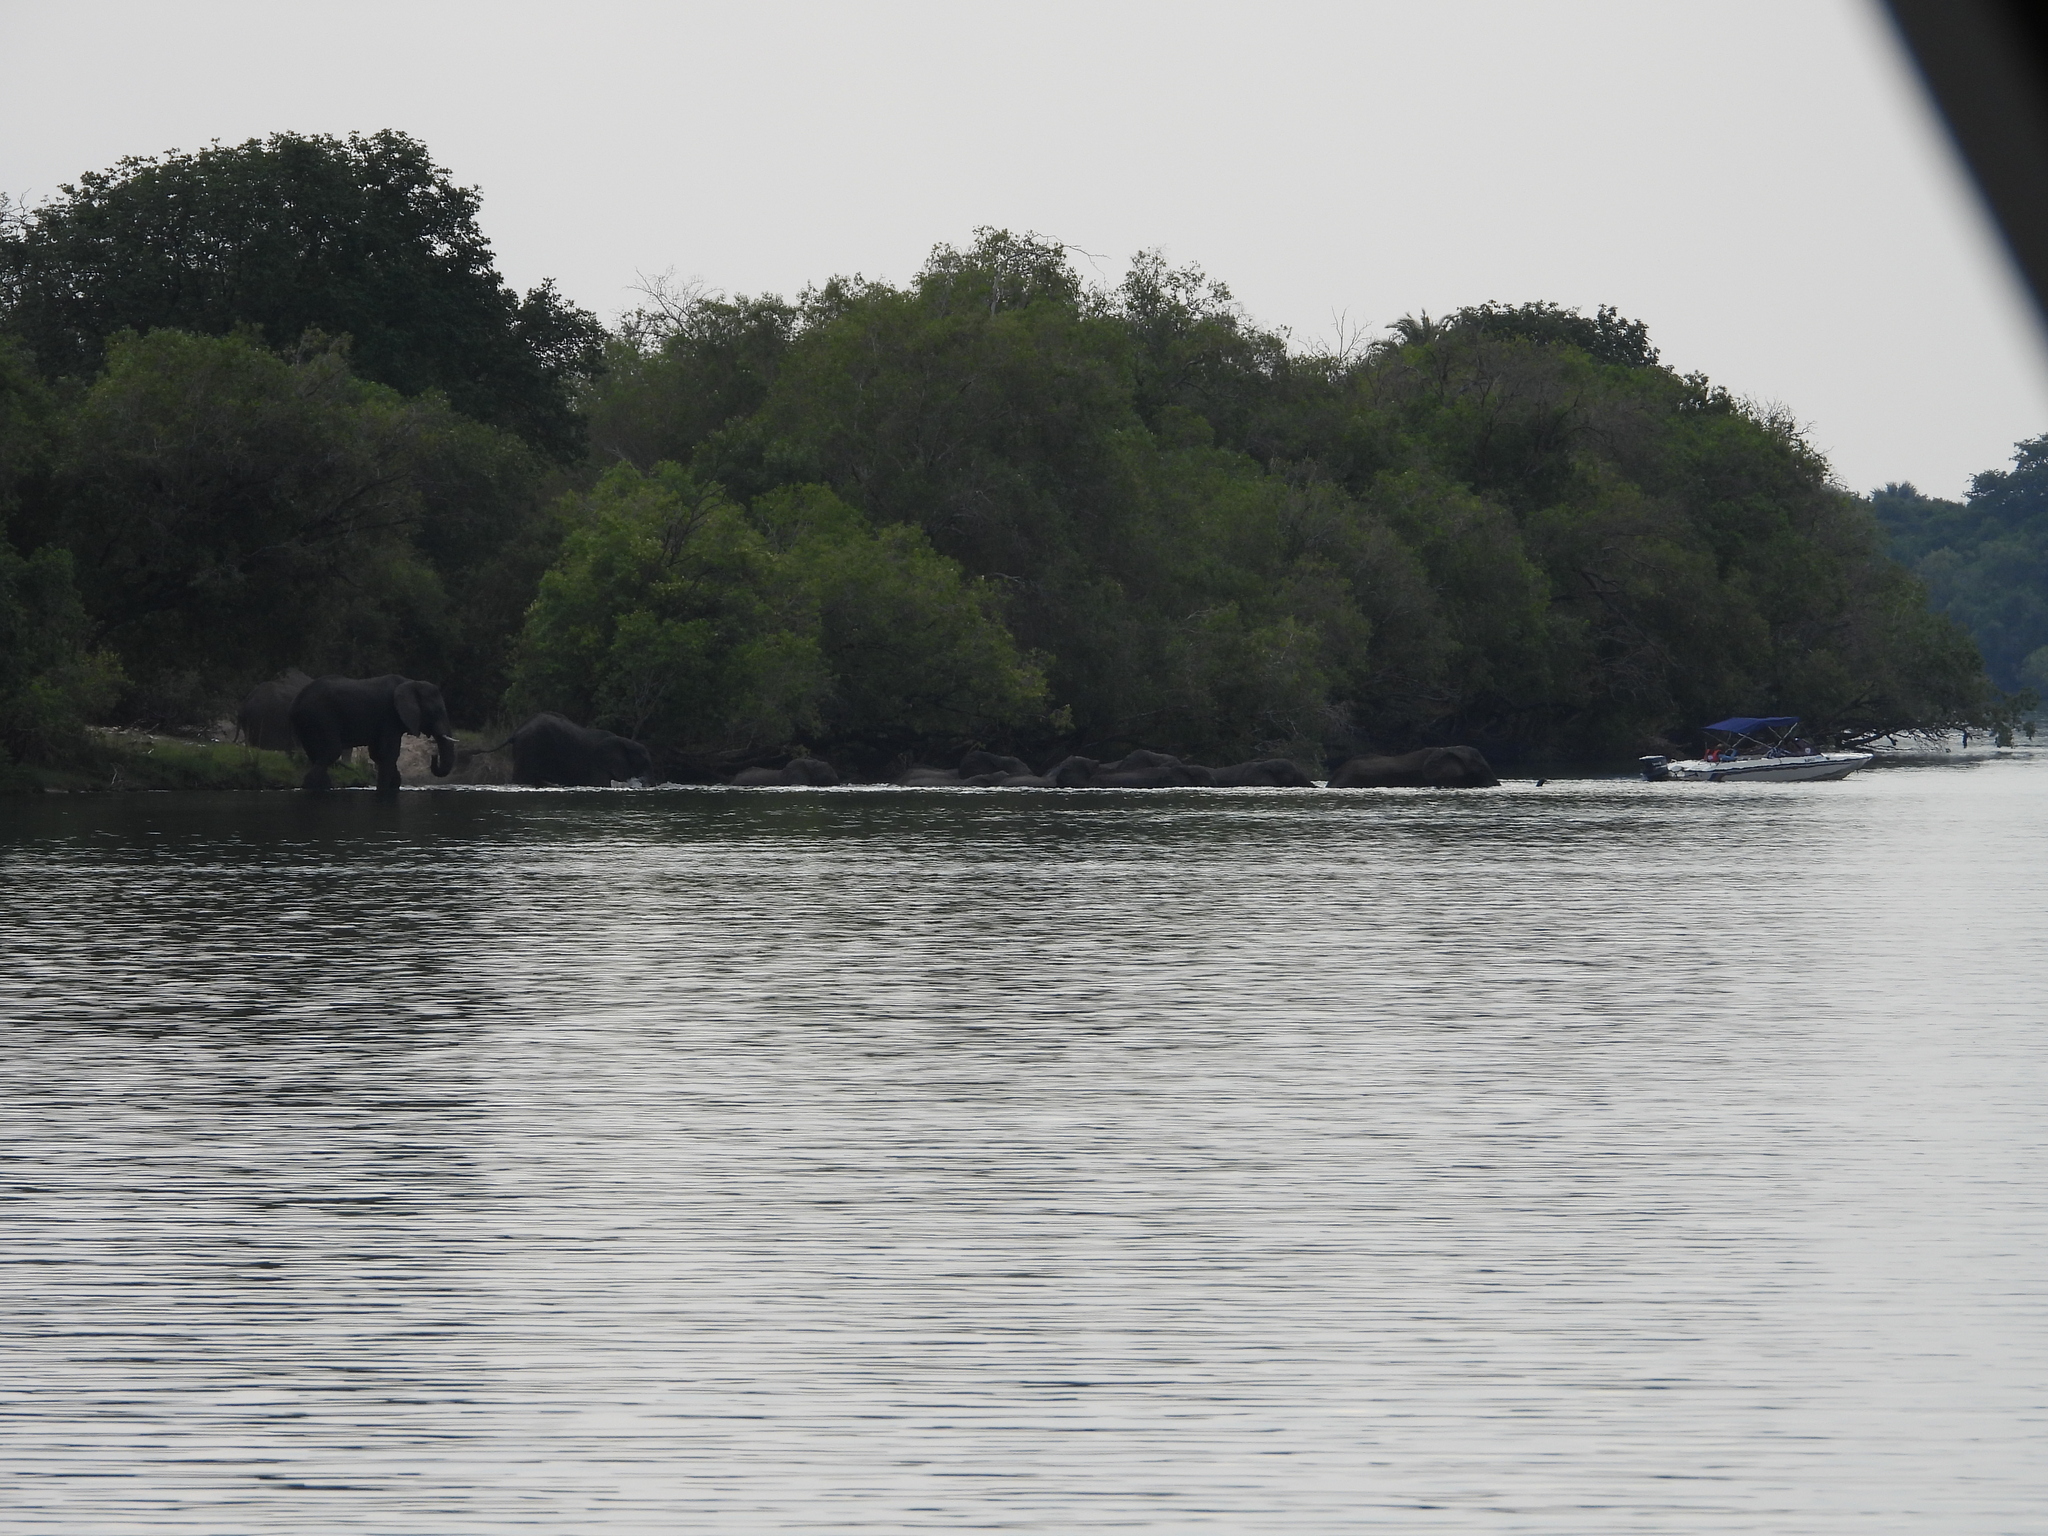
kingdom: Animalia
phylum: Chordata
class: Mammalia
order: Proboscidea
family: Elephantidae
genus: Loxodonta
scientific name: Loxodonta africana
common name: African elephant
